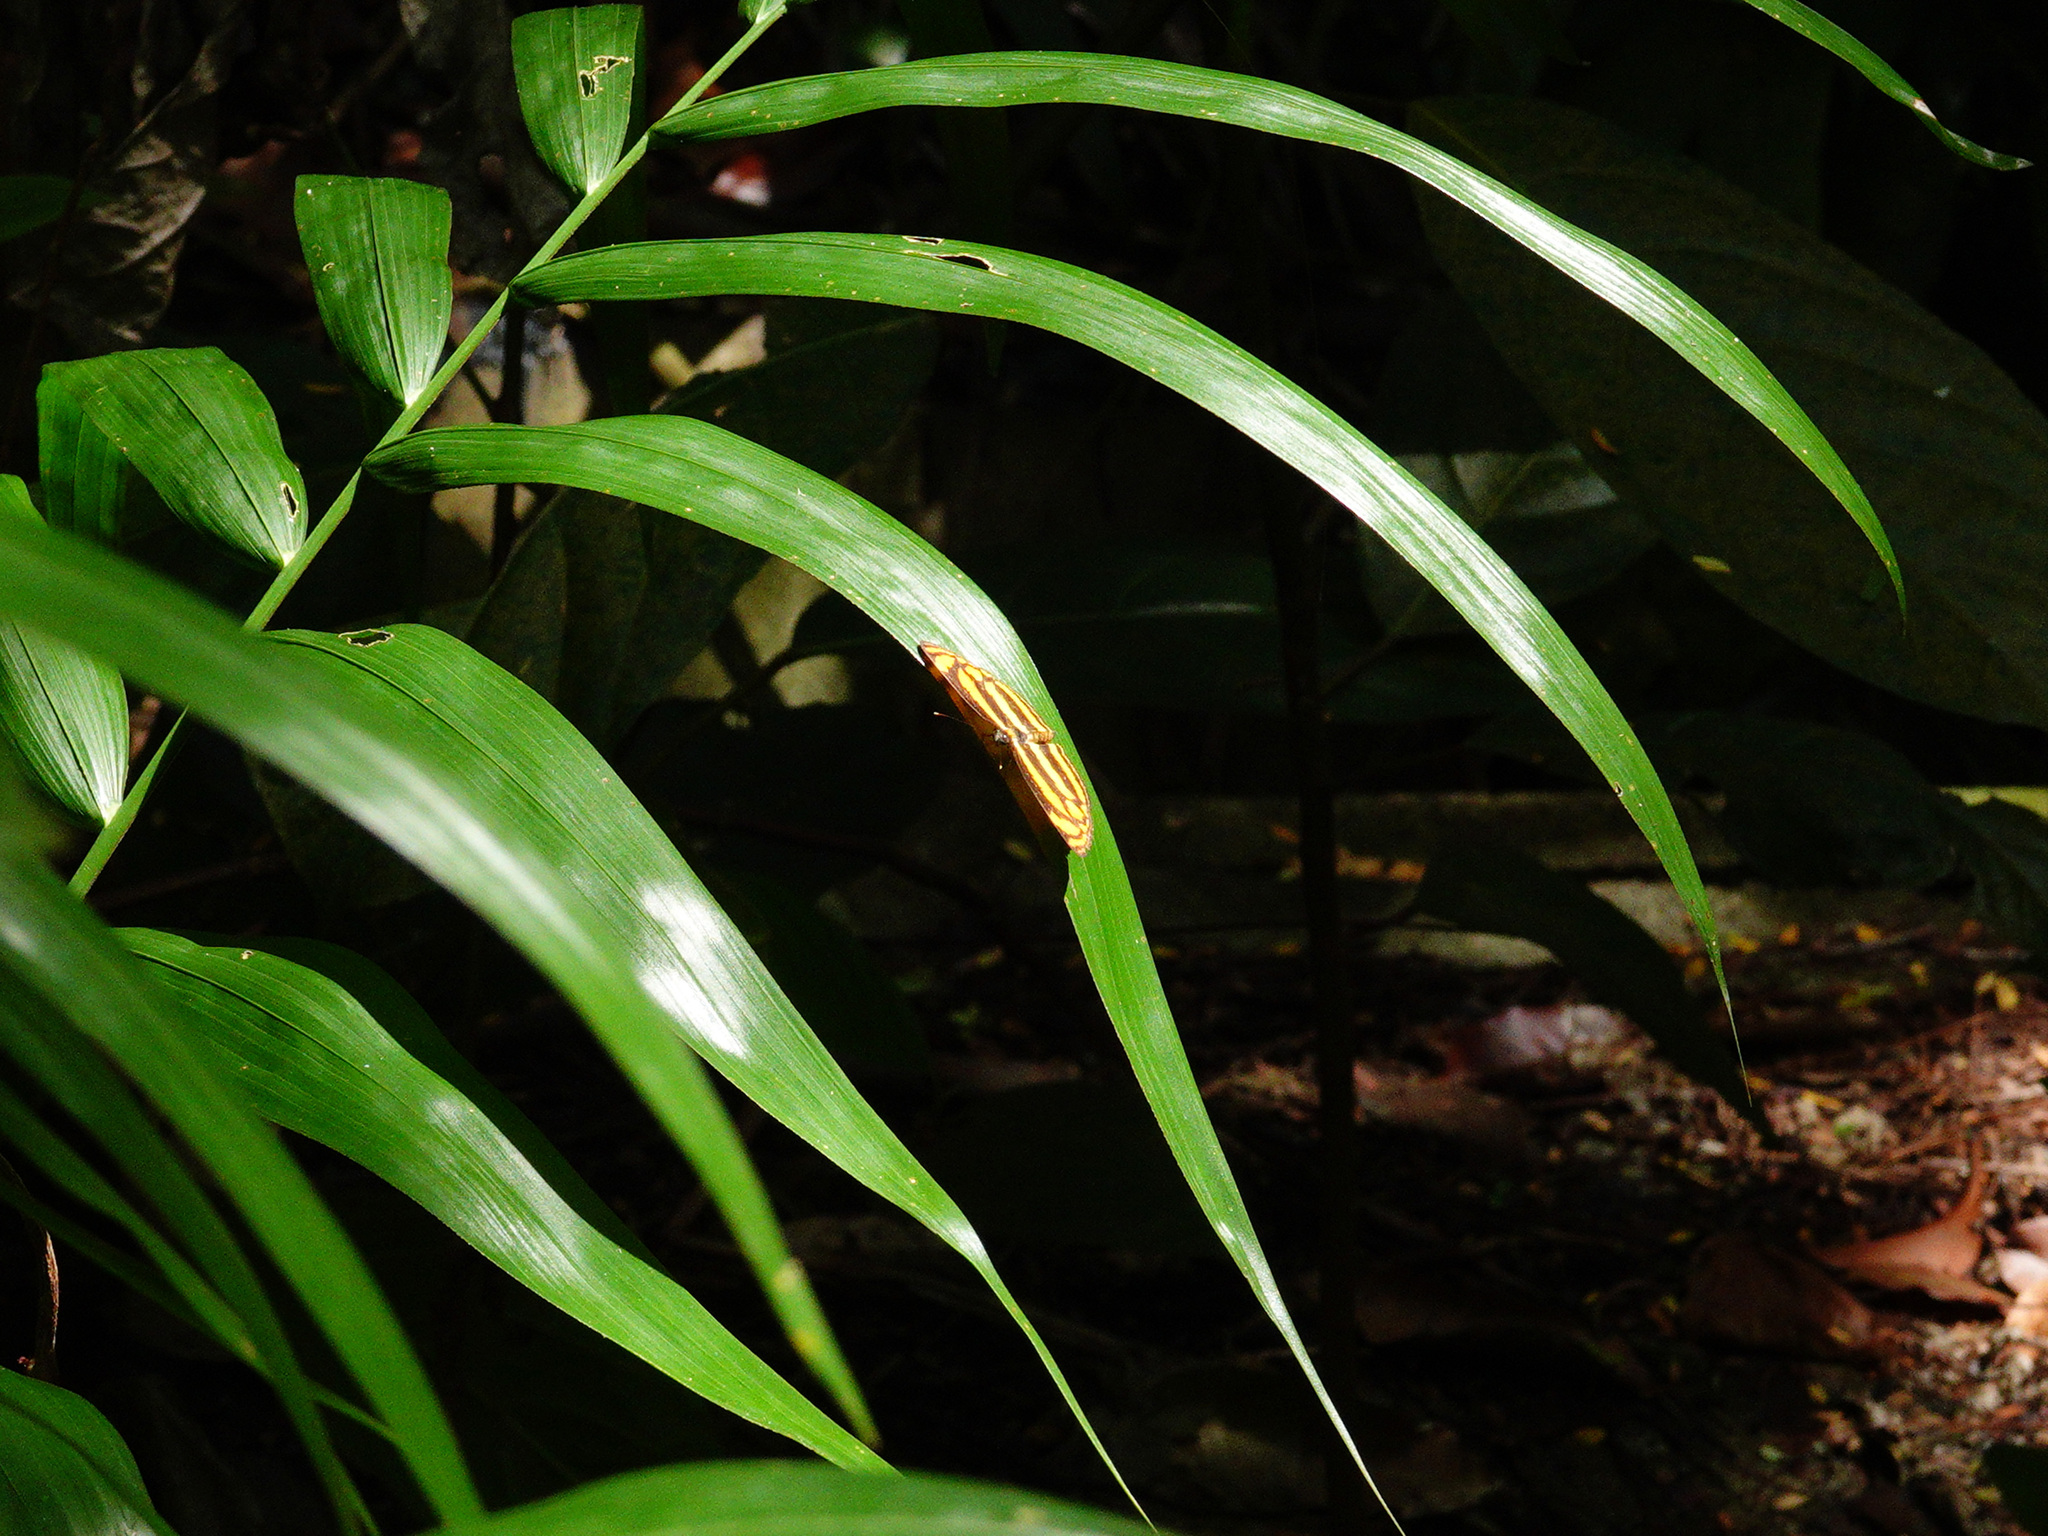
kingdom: Animalia
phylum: Arthropoda
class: Insecta
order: Lepidoptera
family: Nymphalidae
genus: Lasippa
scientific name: Lasippa tiga
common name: Malayan lascar
